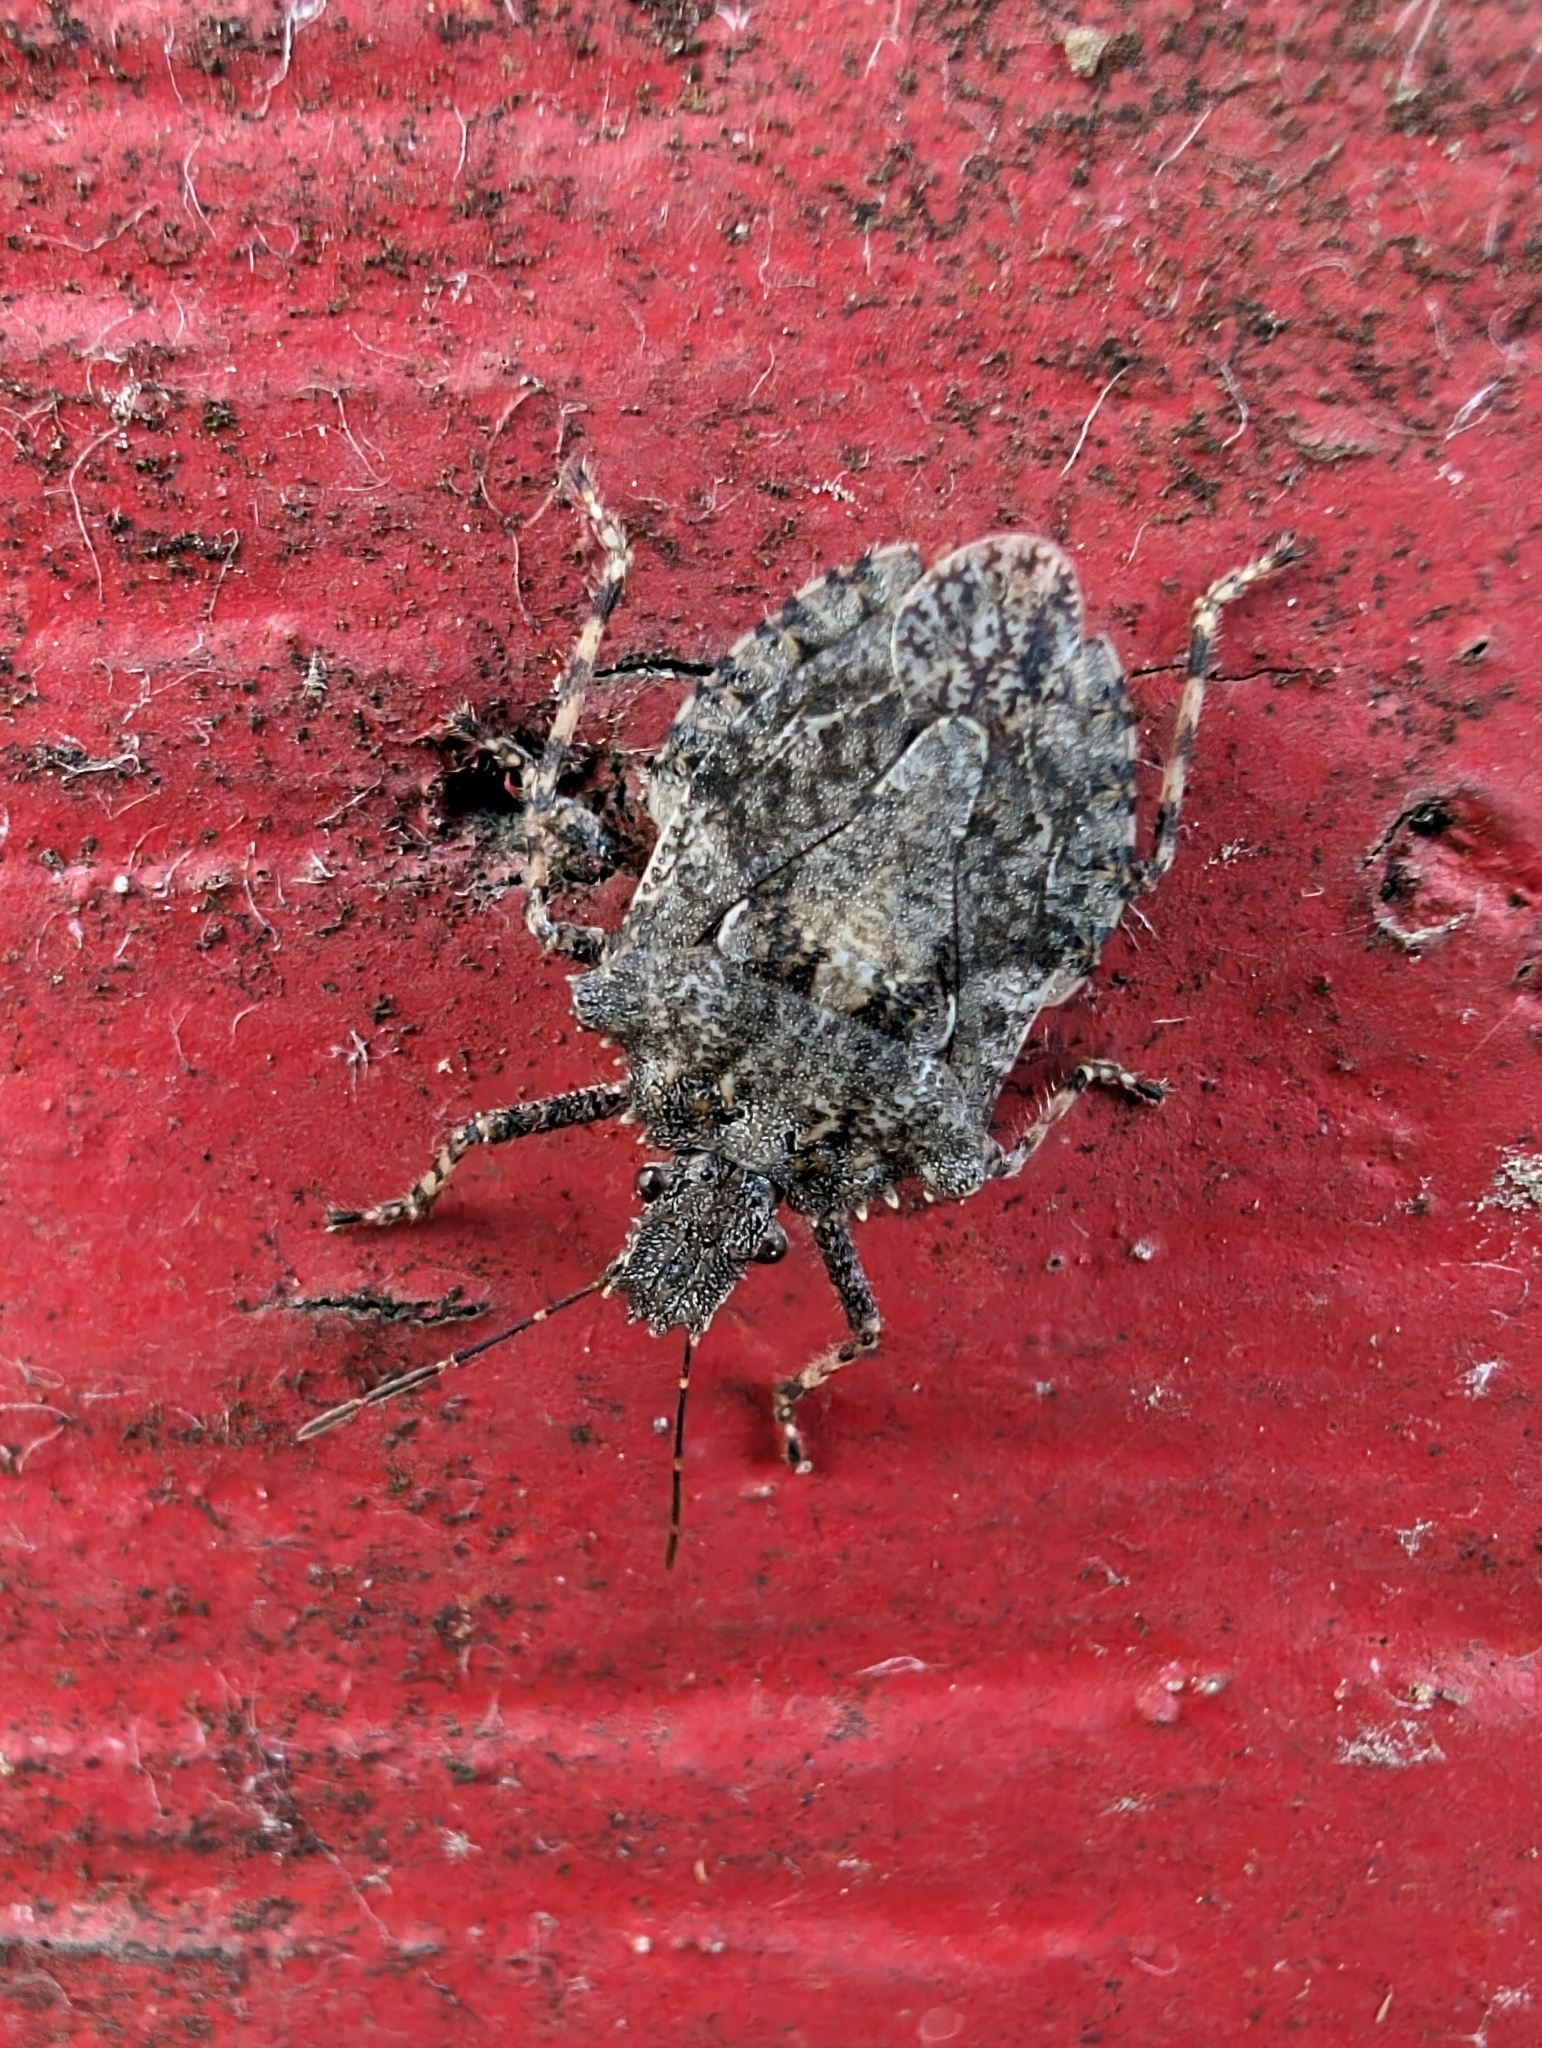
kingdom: Animalia
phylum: Arthropoda
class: Insecta
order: Hemiptera
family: Pentatomidae
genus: Brochymena
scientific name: Brochymena arborea
